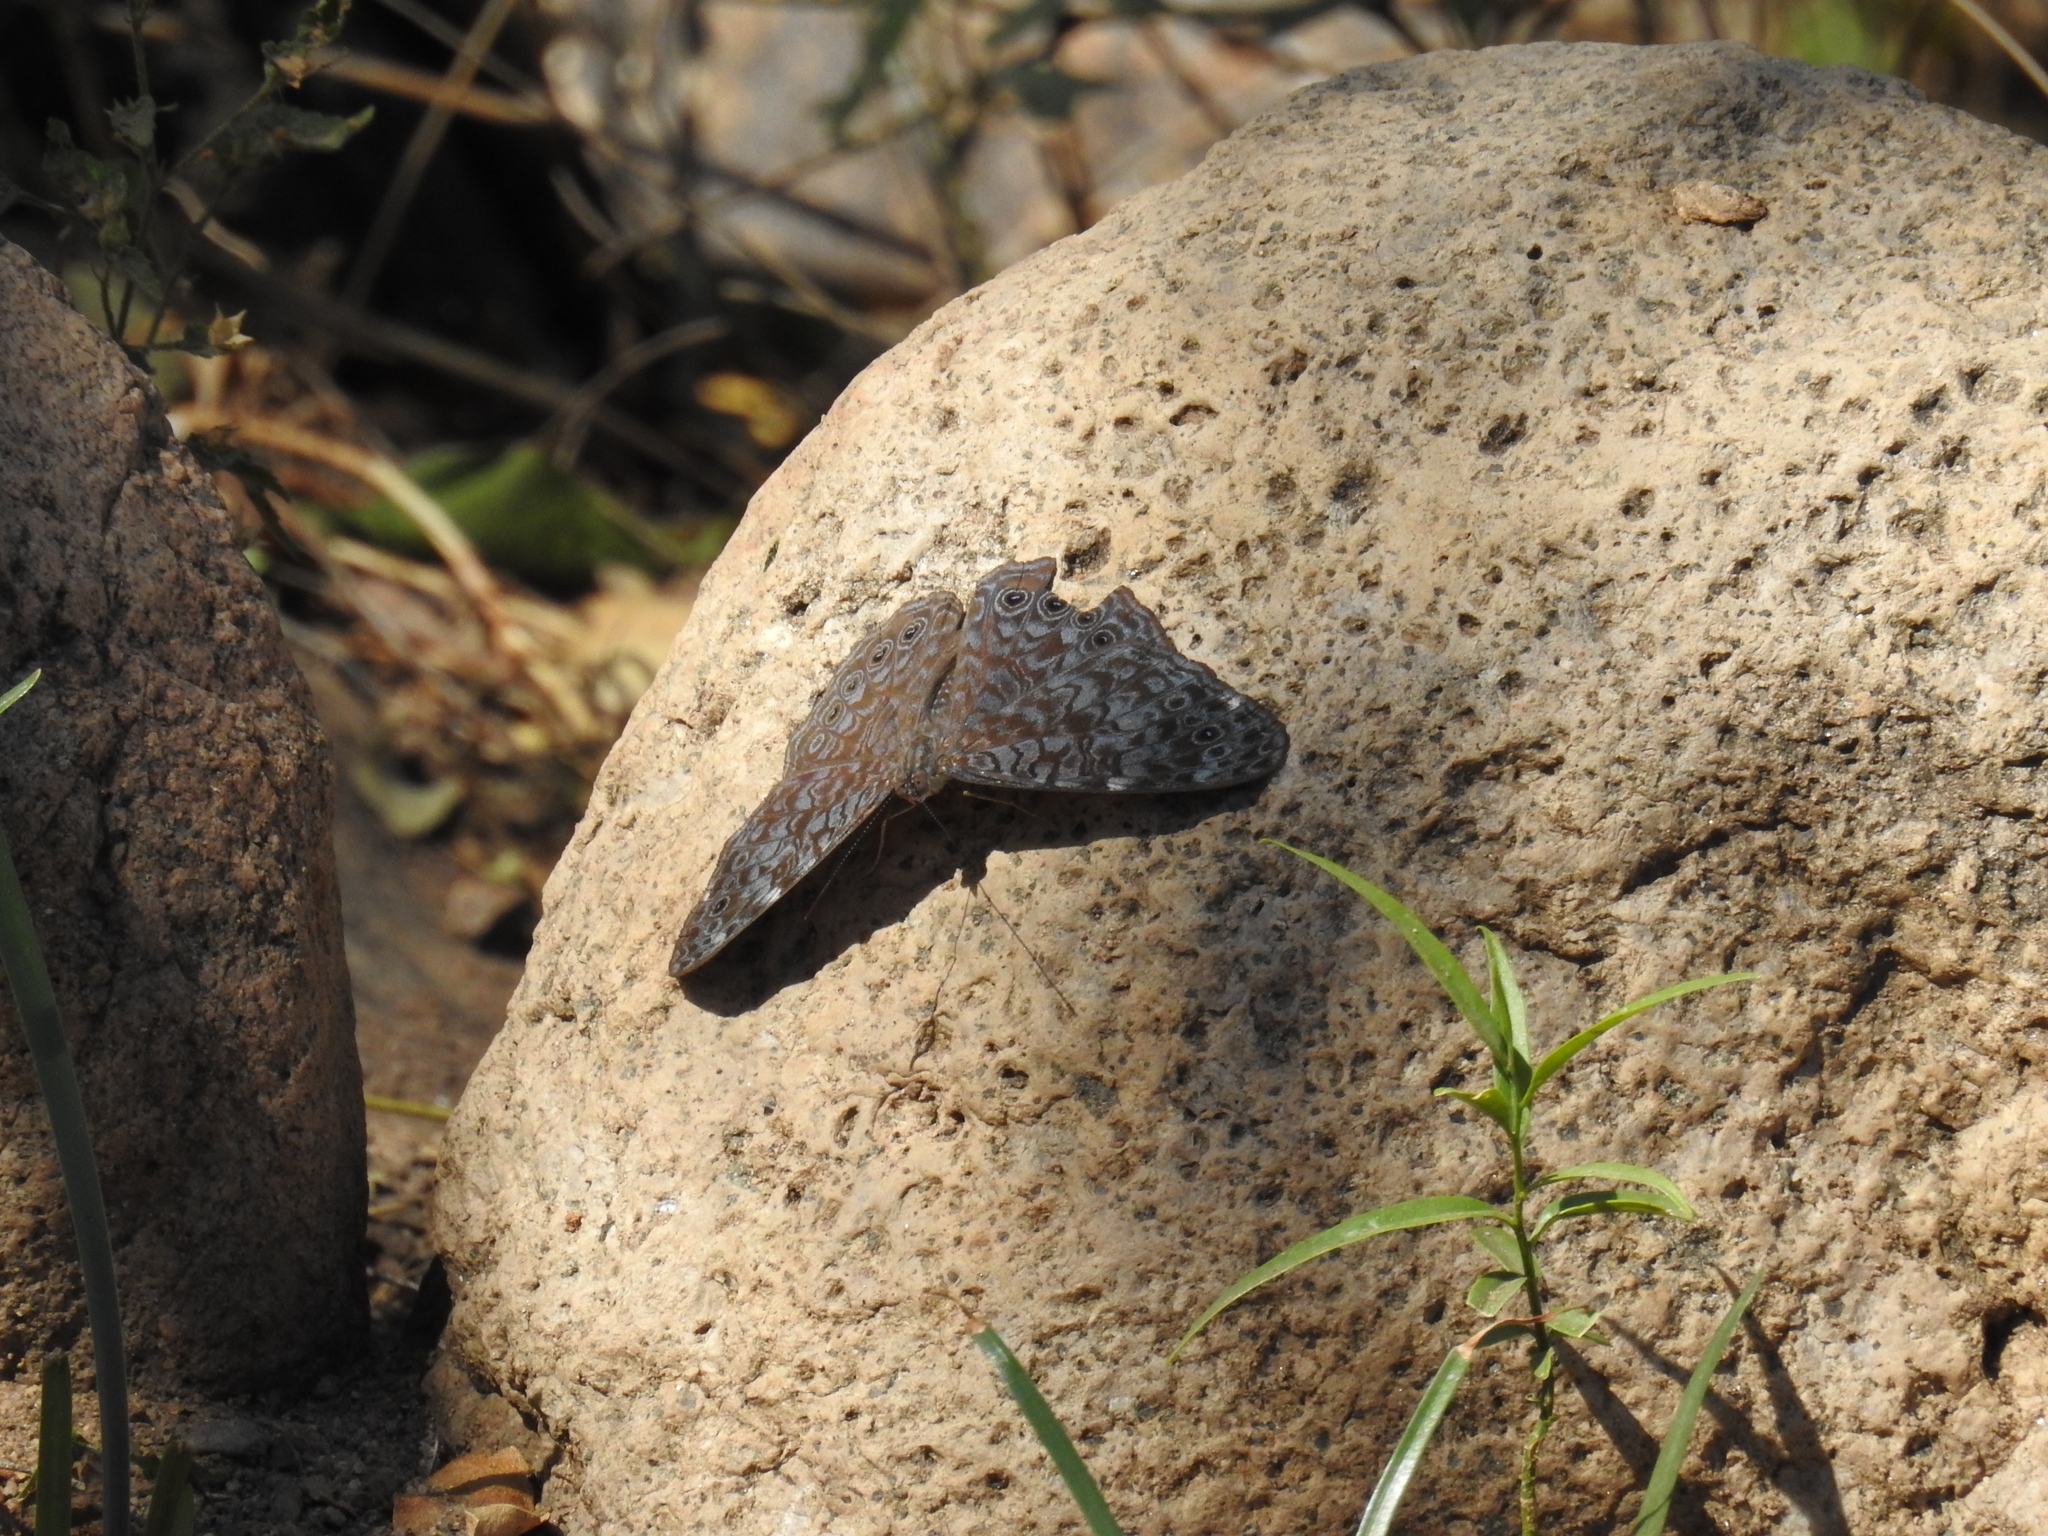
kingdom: Animalia
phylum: Arthropoda
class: Insecta
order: Lepidoptera
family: Nymphalidae
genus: Hamadryas
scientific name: Hamadryas lelaps
